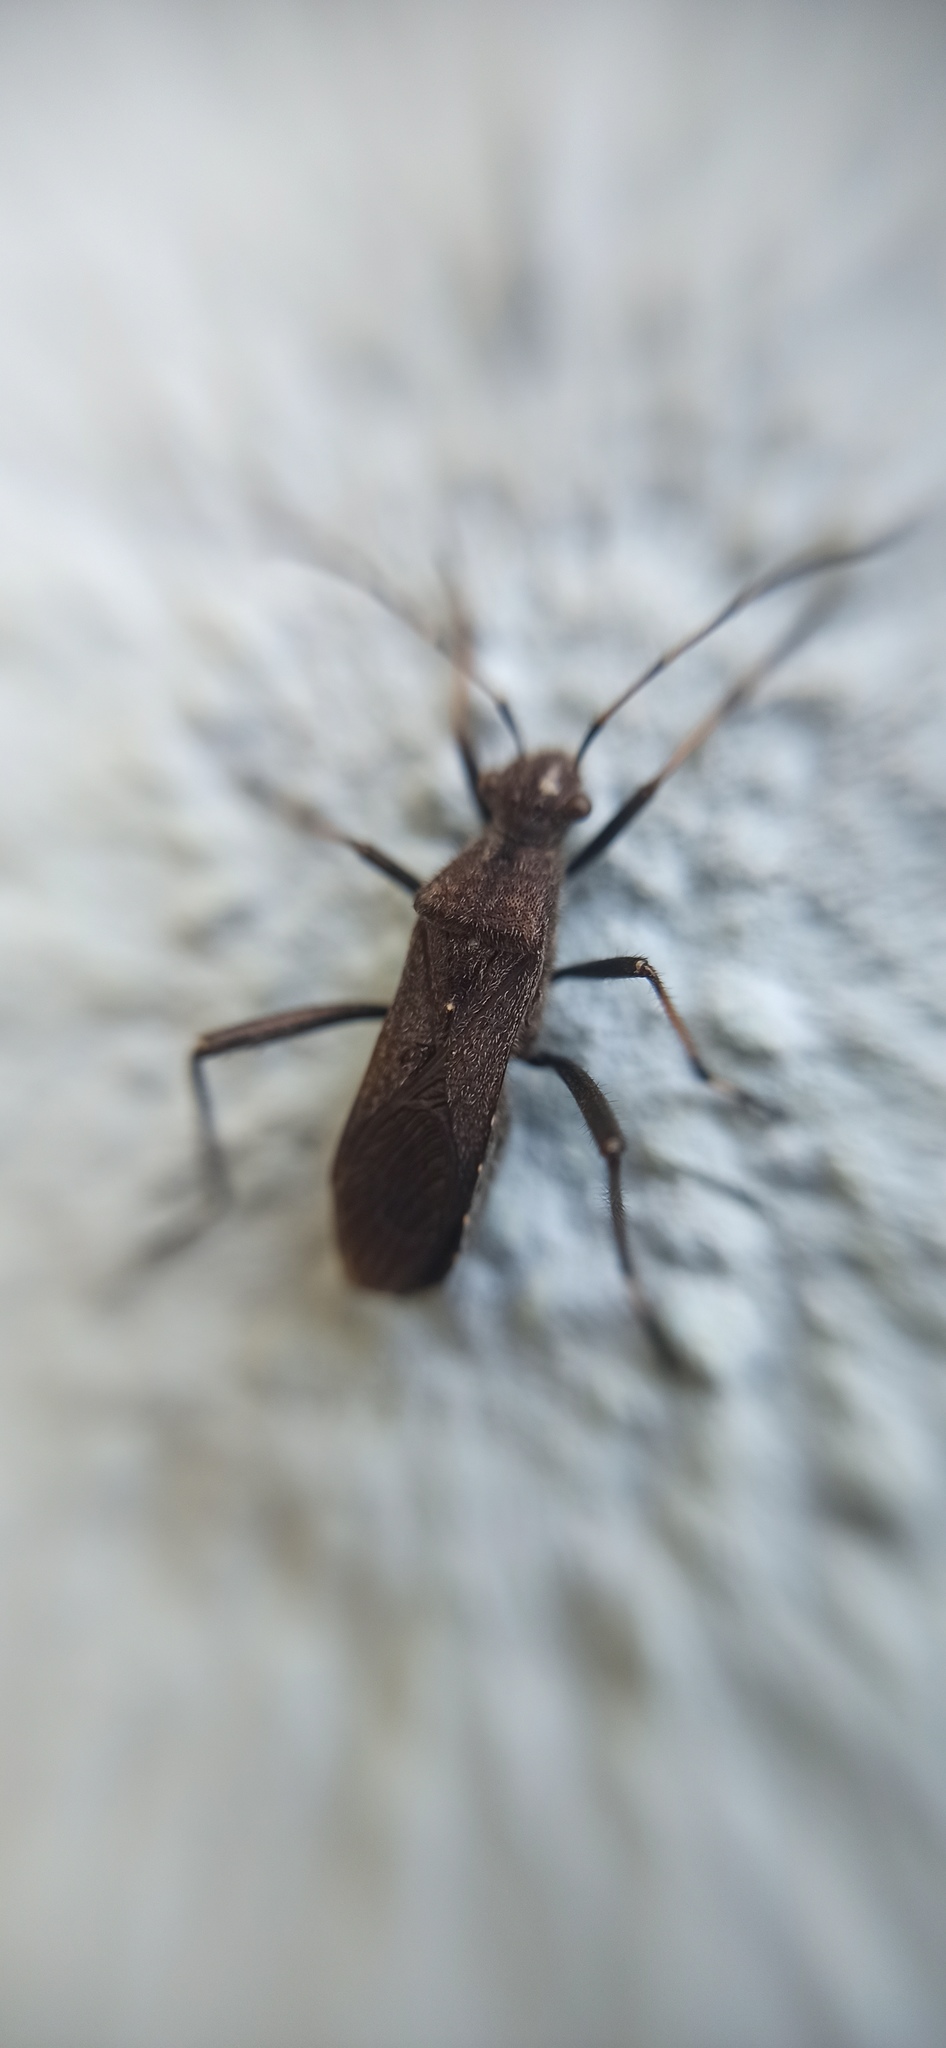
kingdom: Animalia
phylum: Arthropoda
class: Insecta
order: Hemiptera
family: Alydidae
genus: Alydus
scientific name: Alydus calcaratus
